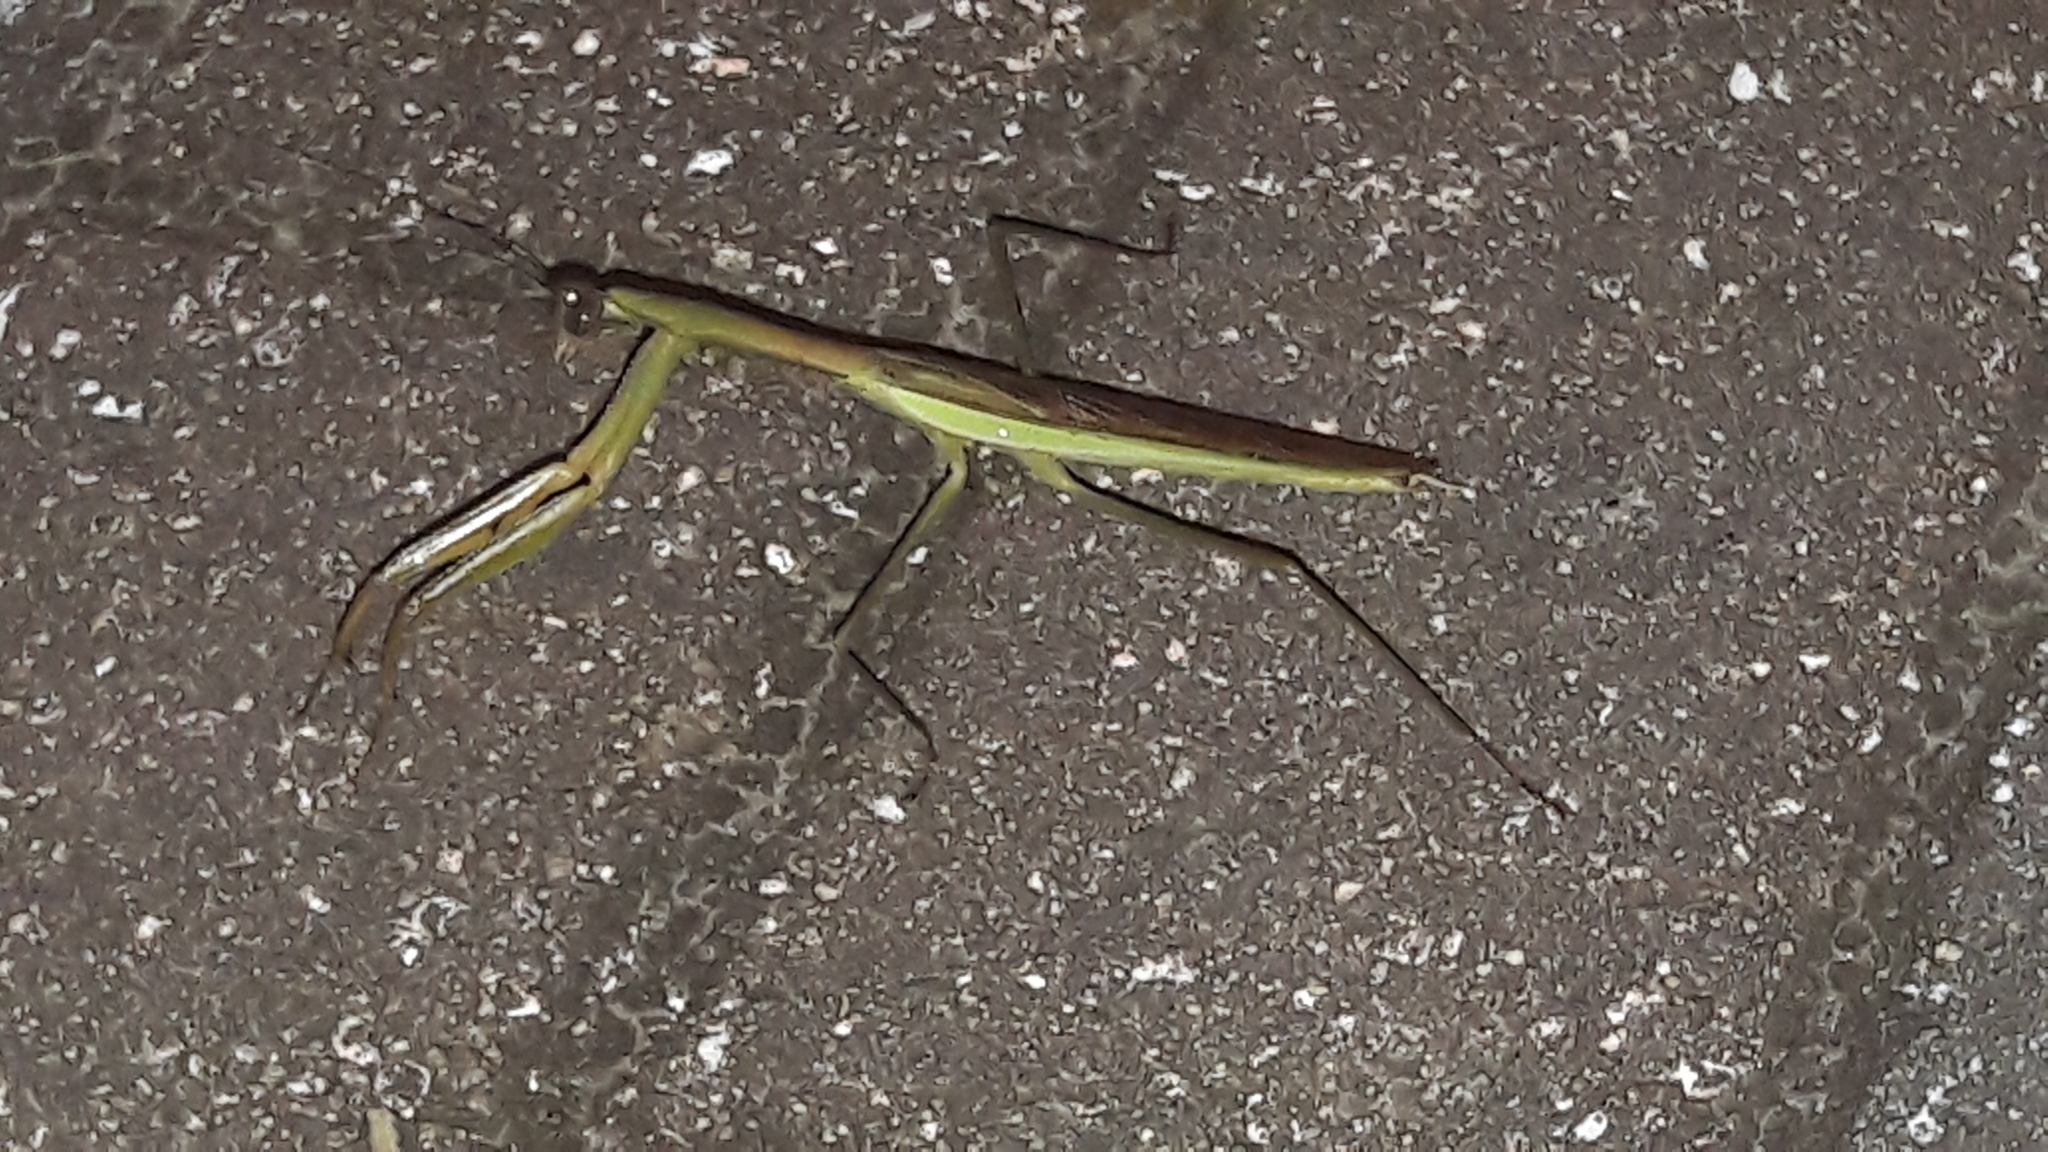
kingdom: Animalia
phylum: Arthropoda
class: Insecta
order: Mantodea
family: Mantidae
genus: Tenodera
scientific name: Tenodera
